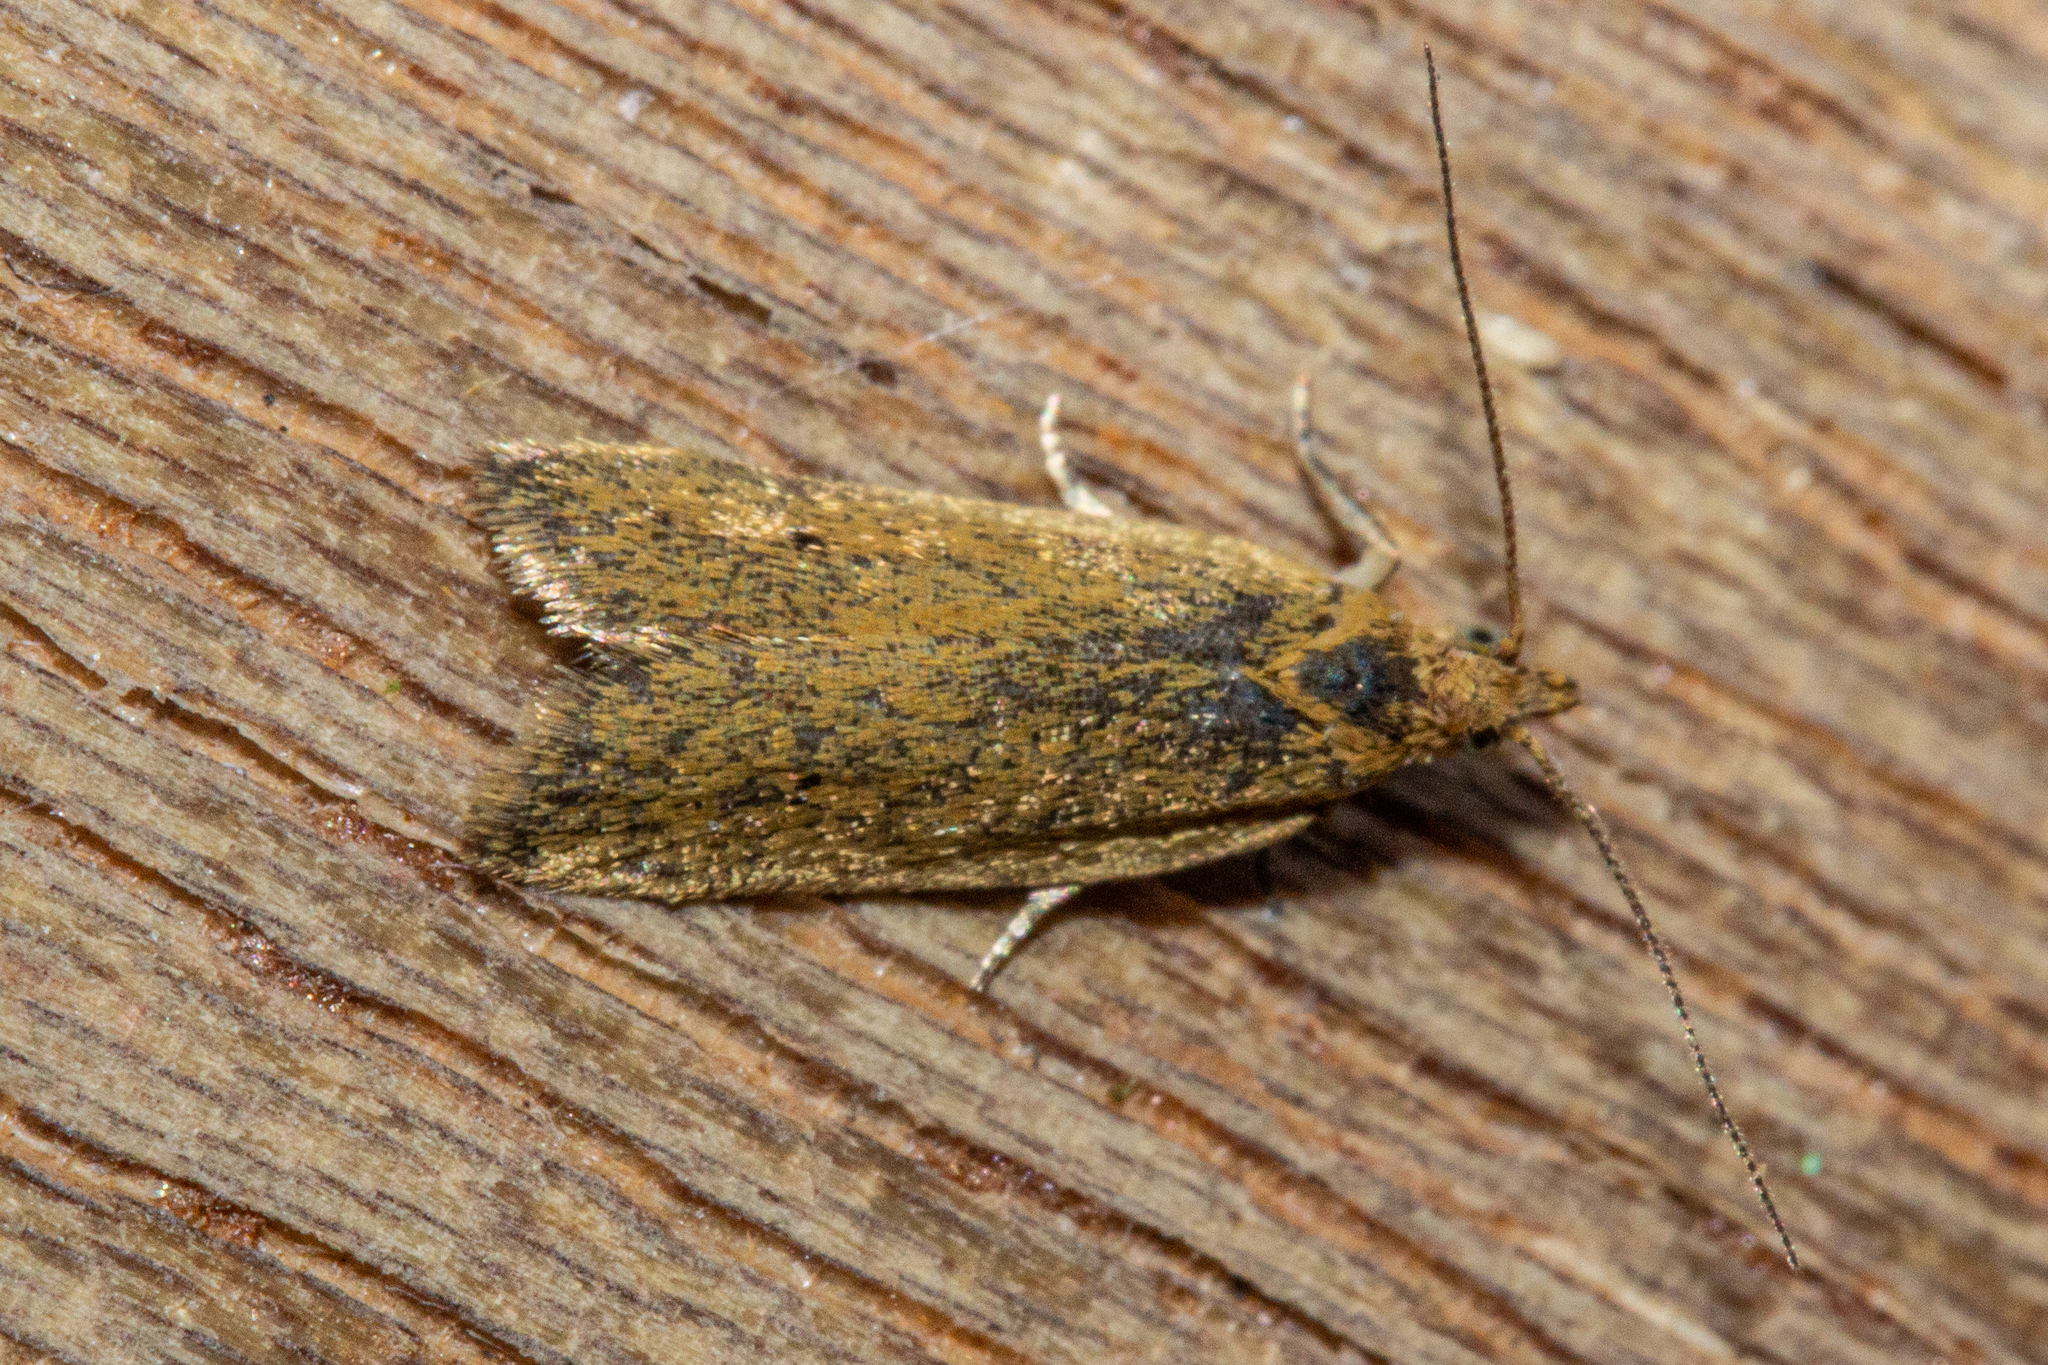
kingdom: Animalia
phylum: Arthropoda
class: Insecta
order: Lepidoptera
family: Tortricidae
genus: Epichorista
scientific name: Epichorista siriana
